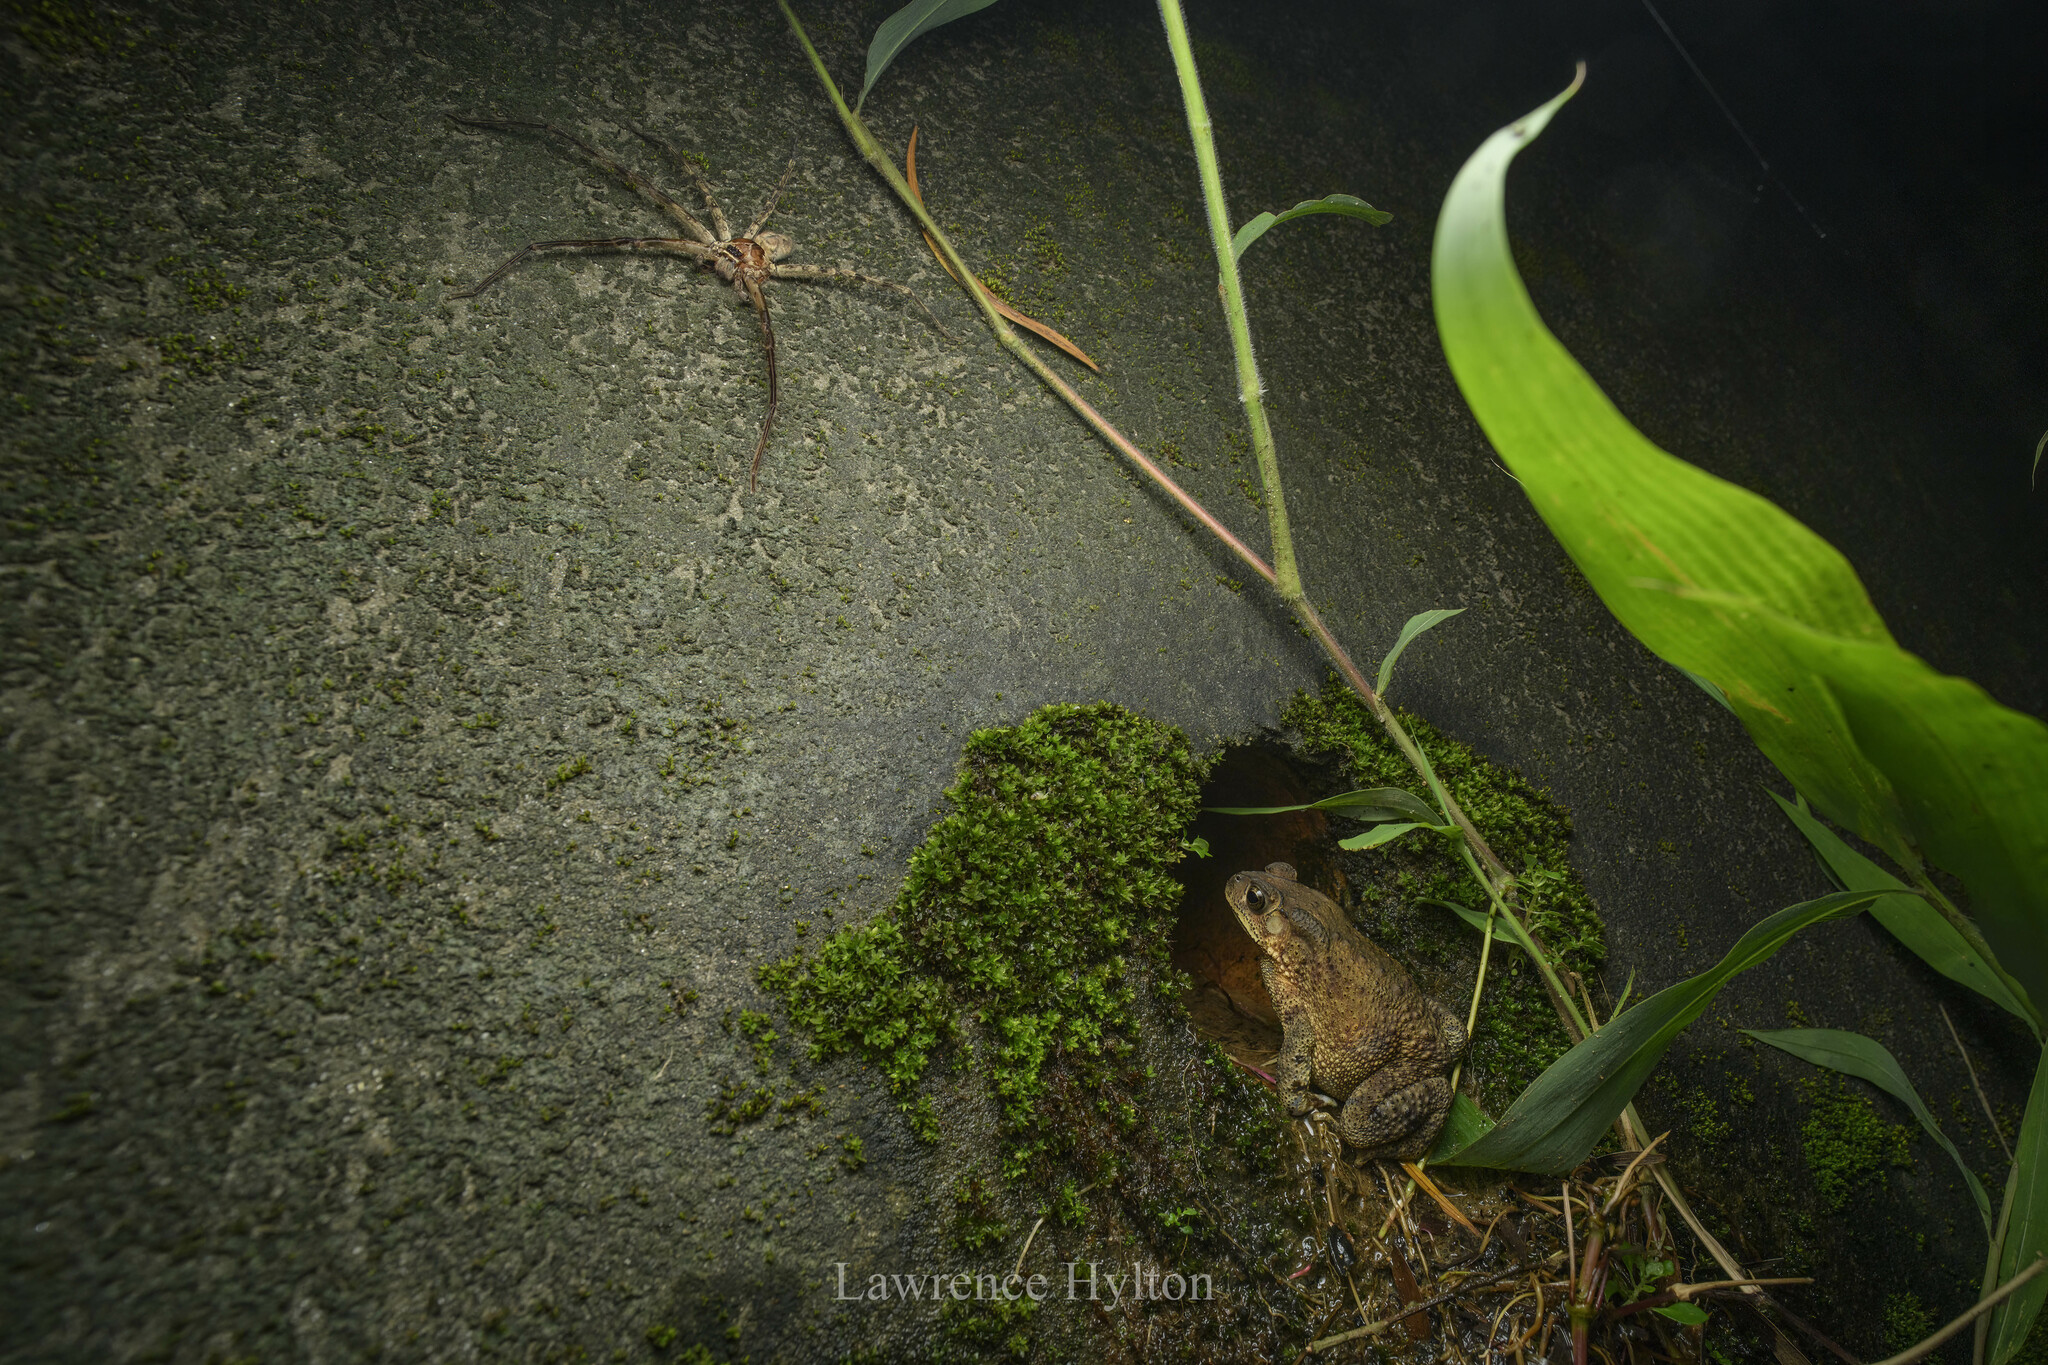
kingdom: Animalia
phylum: Chordata
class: Amphibia
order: Anura
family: Bufonidae
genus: Duttaphrynus
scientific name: Duttaphrynus melanostictus
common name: Common sunda toad
